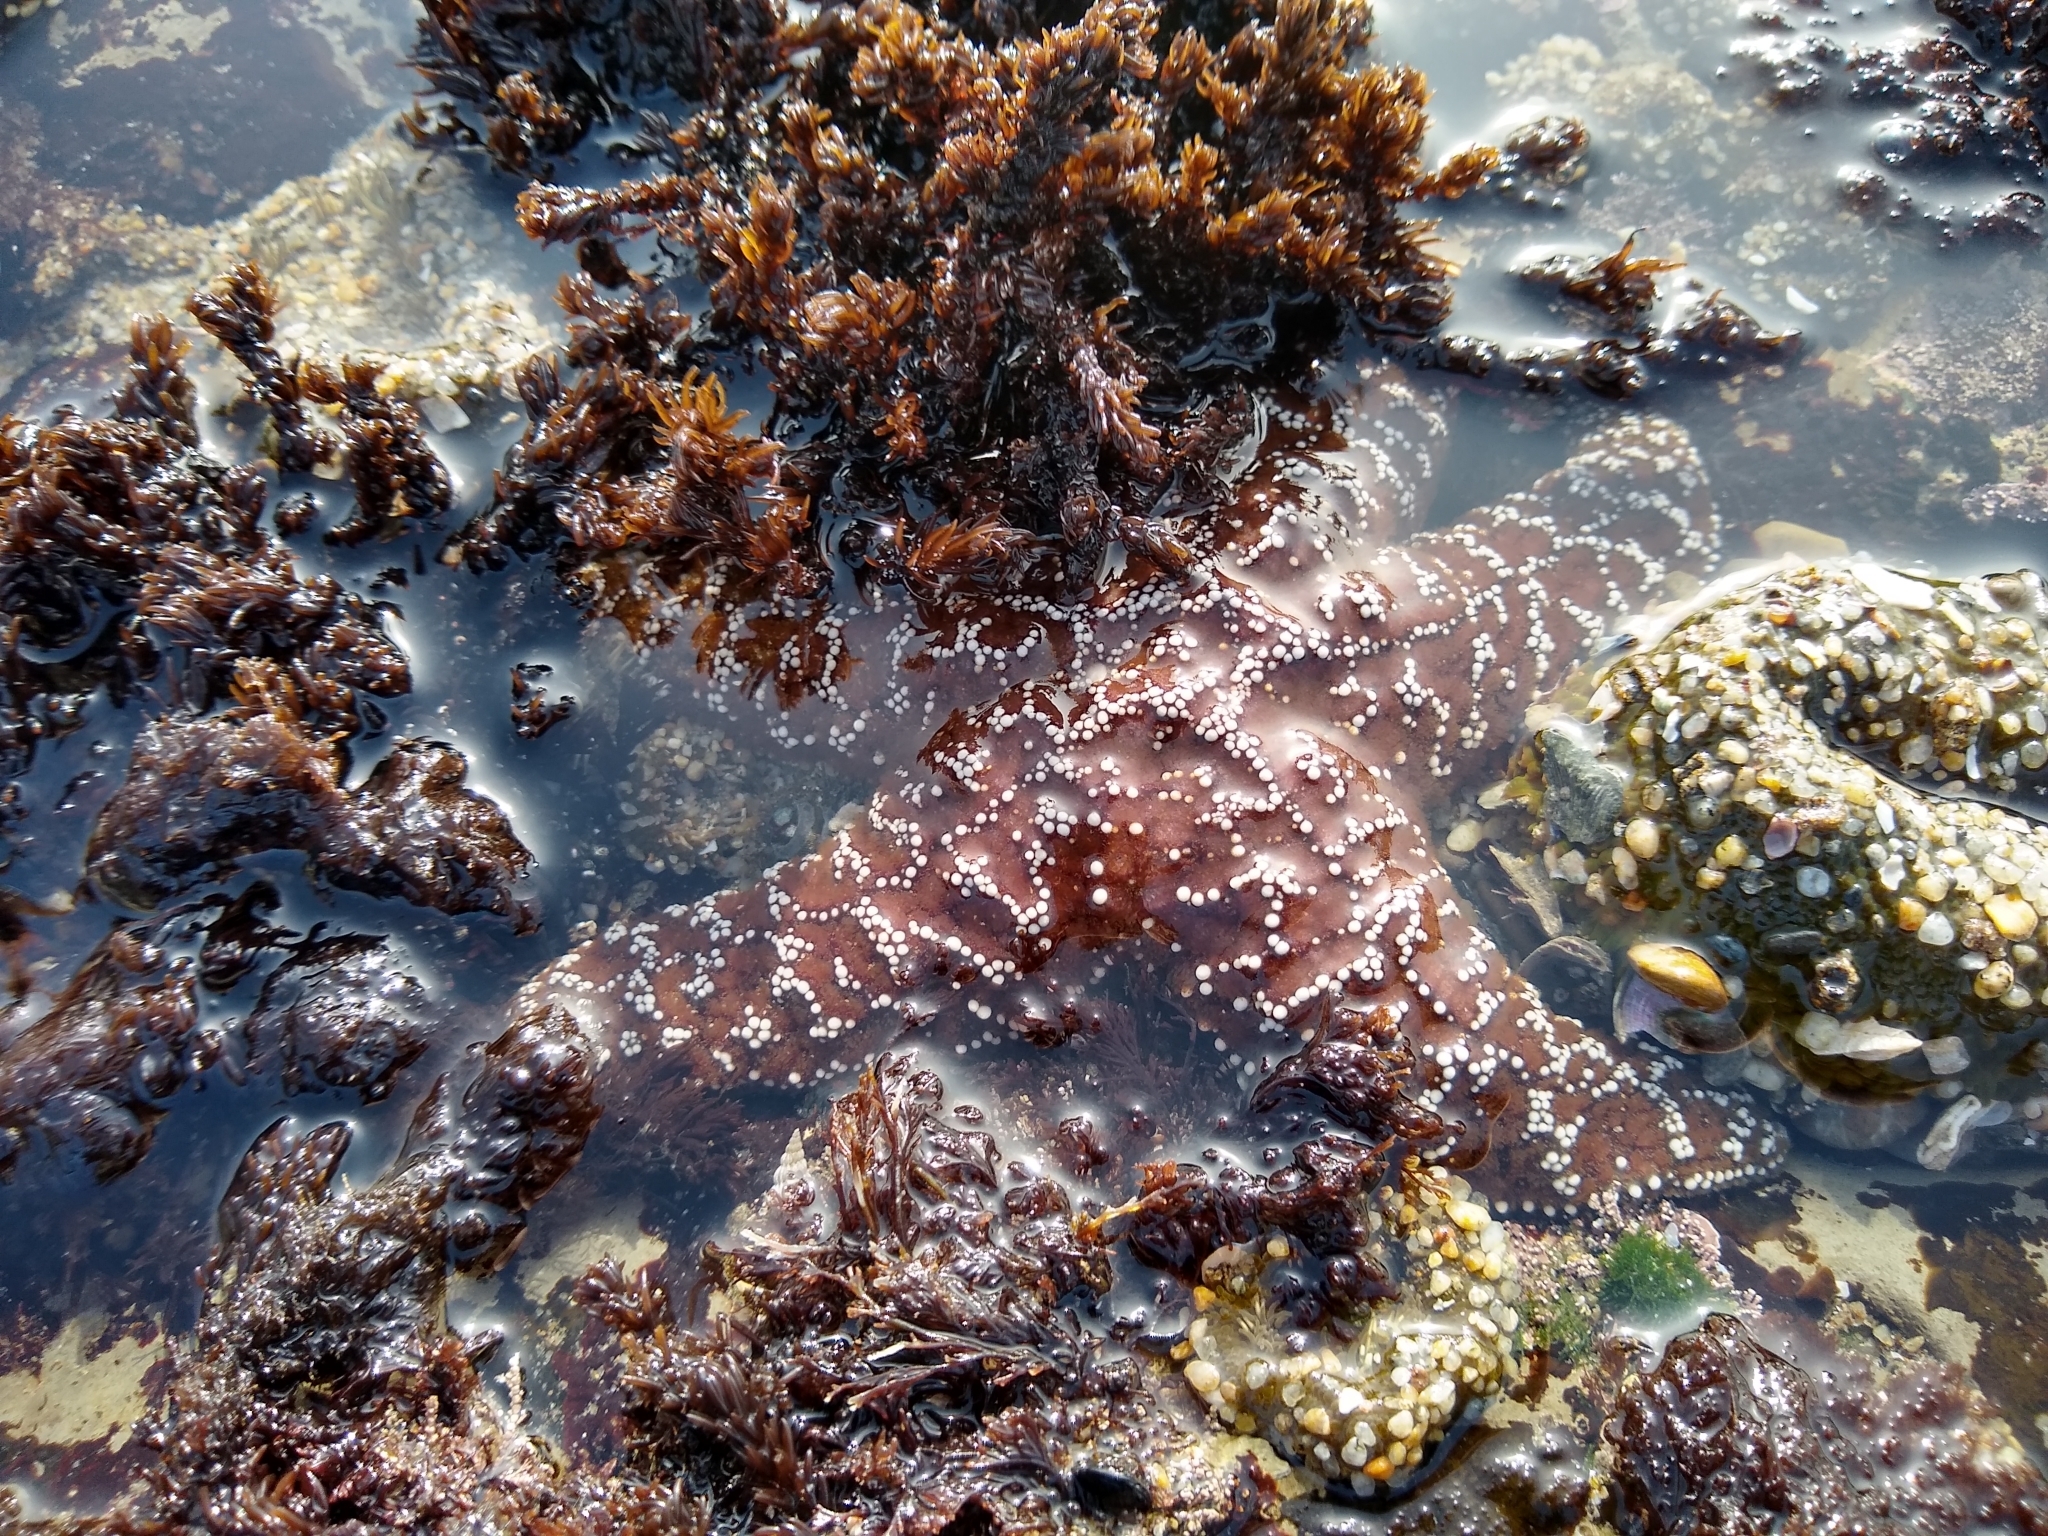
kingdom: Animalia
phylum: Echinodermata
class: Asteroidea
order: Forcipulatida
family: Asteriidae
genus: Pisaster
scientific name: Pisaster ochraceus
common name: Ochre stars
